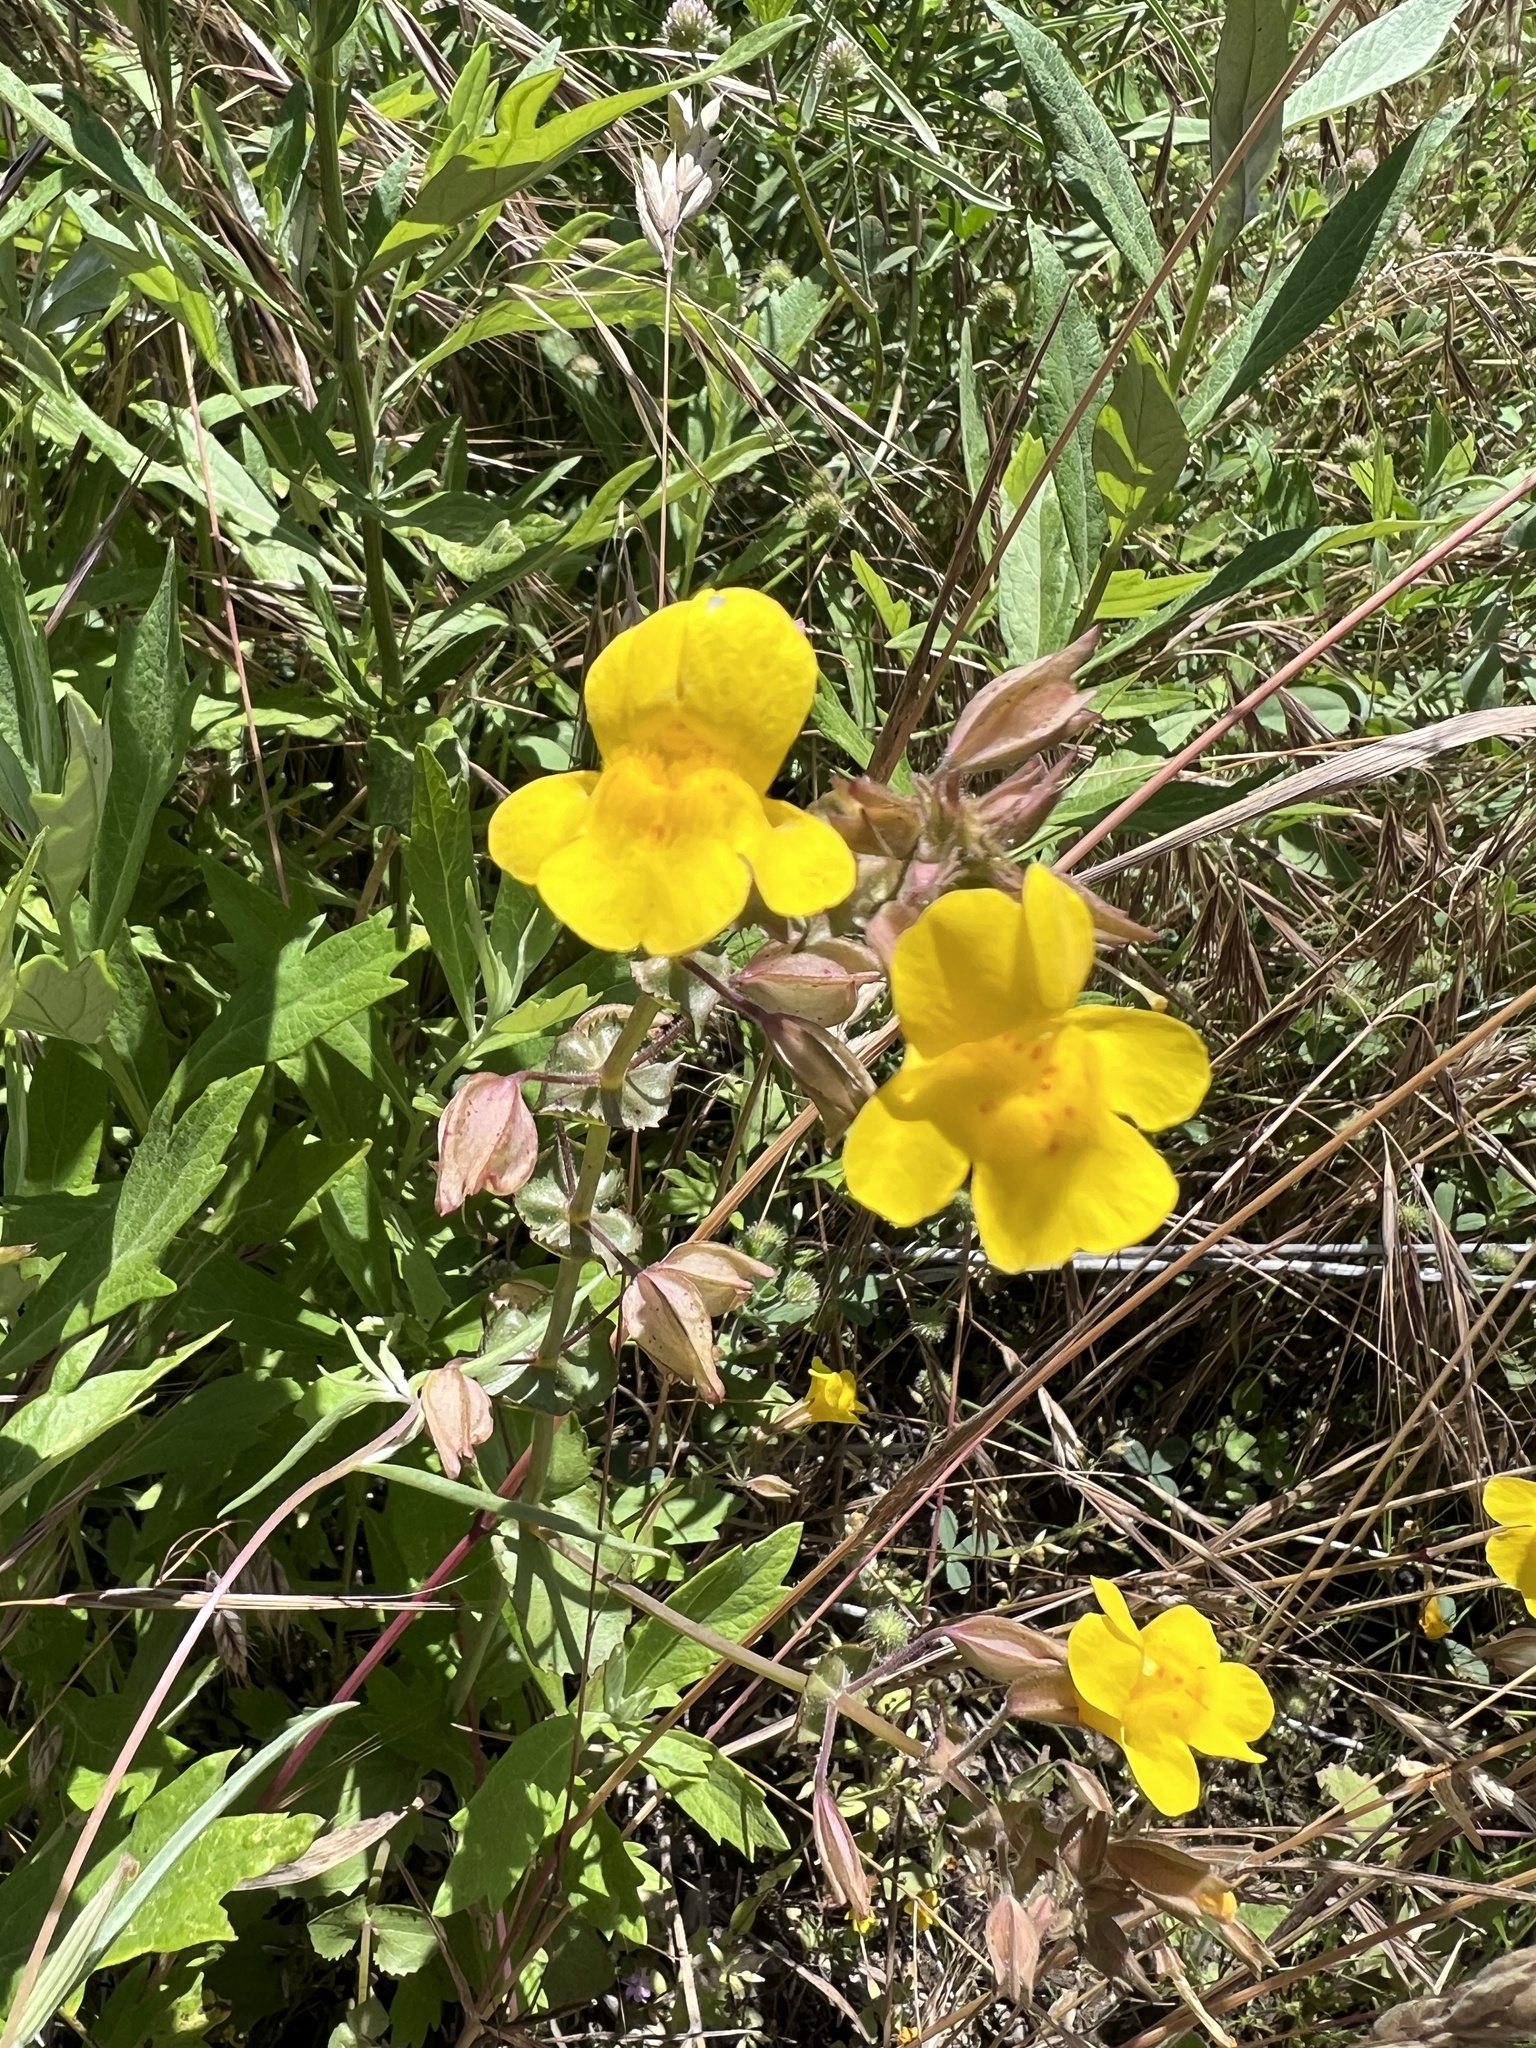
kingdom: Plantae
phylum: Tracheophyta
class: Magnoliopsida
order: Lamiales
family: Phrymaceae
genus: Erythranthe
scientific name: Erythranthe guttata
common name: Monkeyflower
